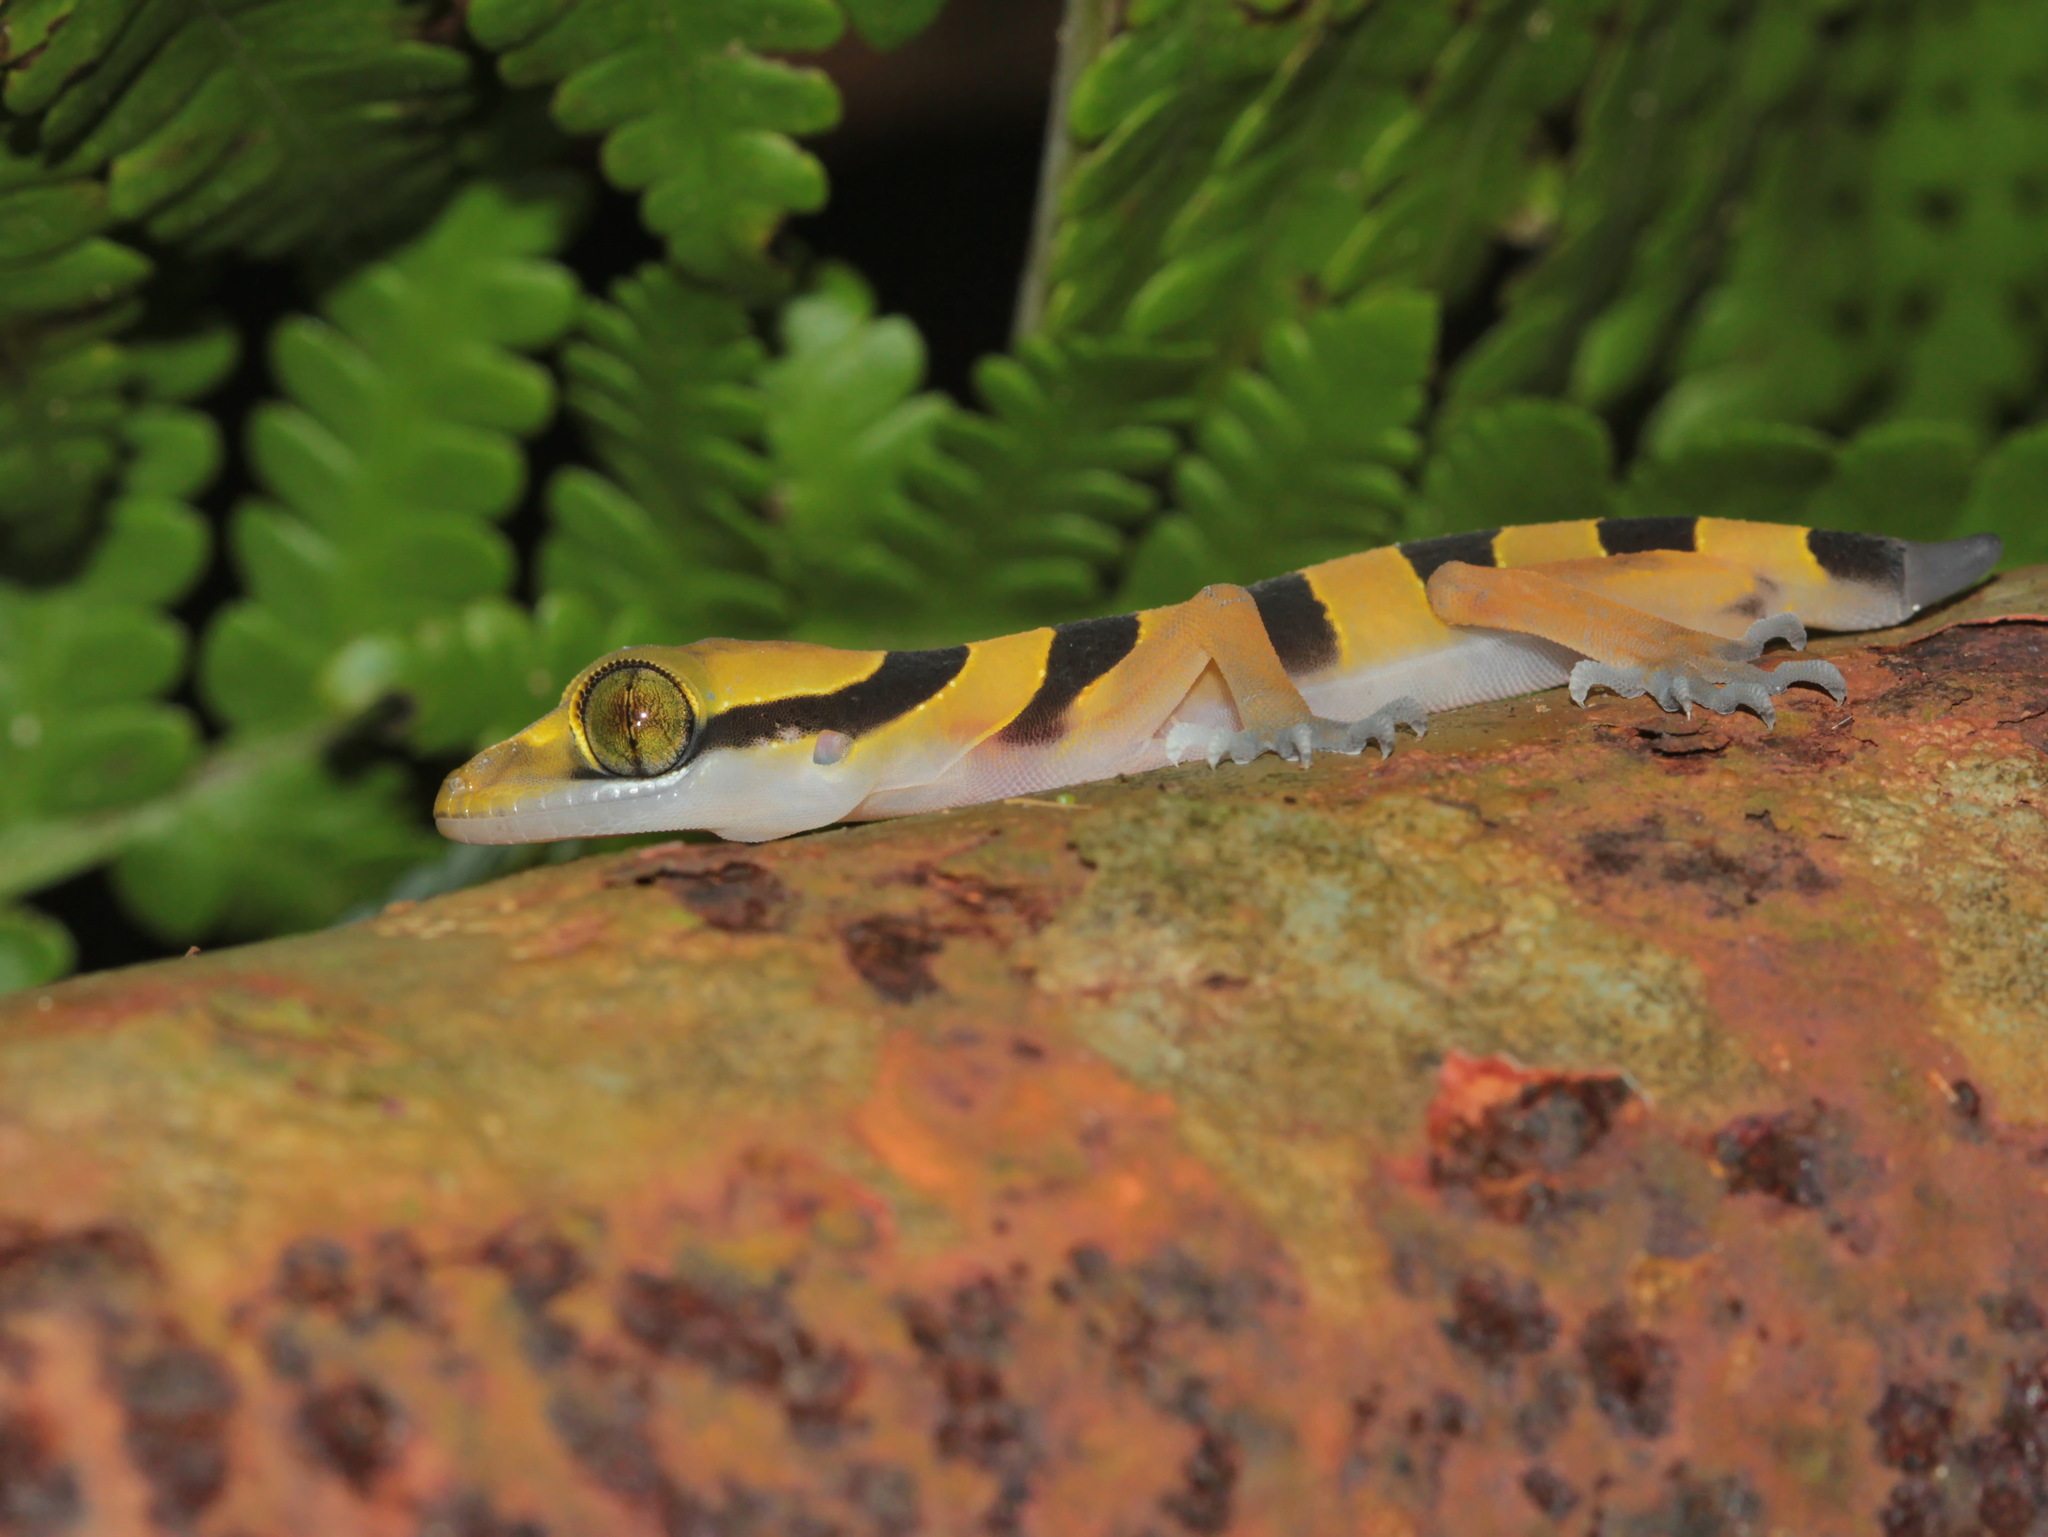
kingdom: Animalia
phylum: Chordata
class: Squamata
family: Gekkonidae
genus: Cyrtodactylus
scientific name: Cyrtodactylus lekaguli
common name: Tuk-kai boonsong bent-toed gecko
